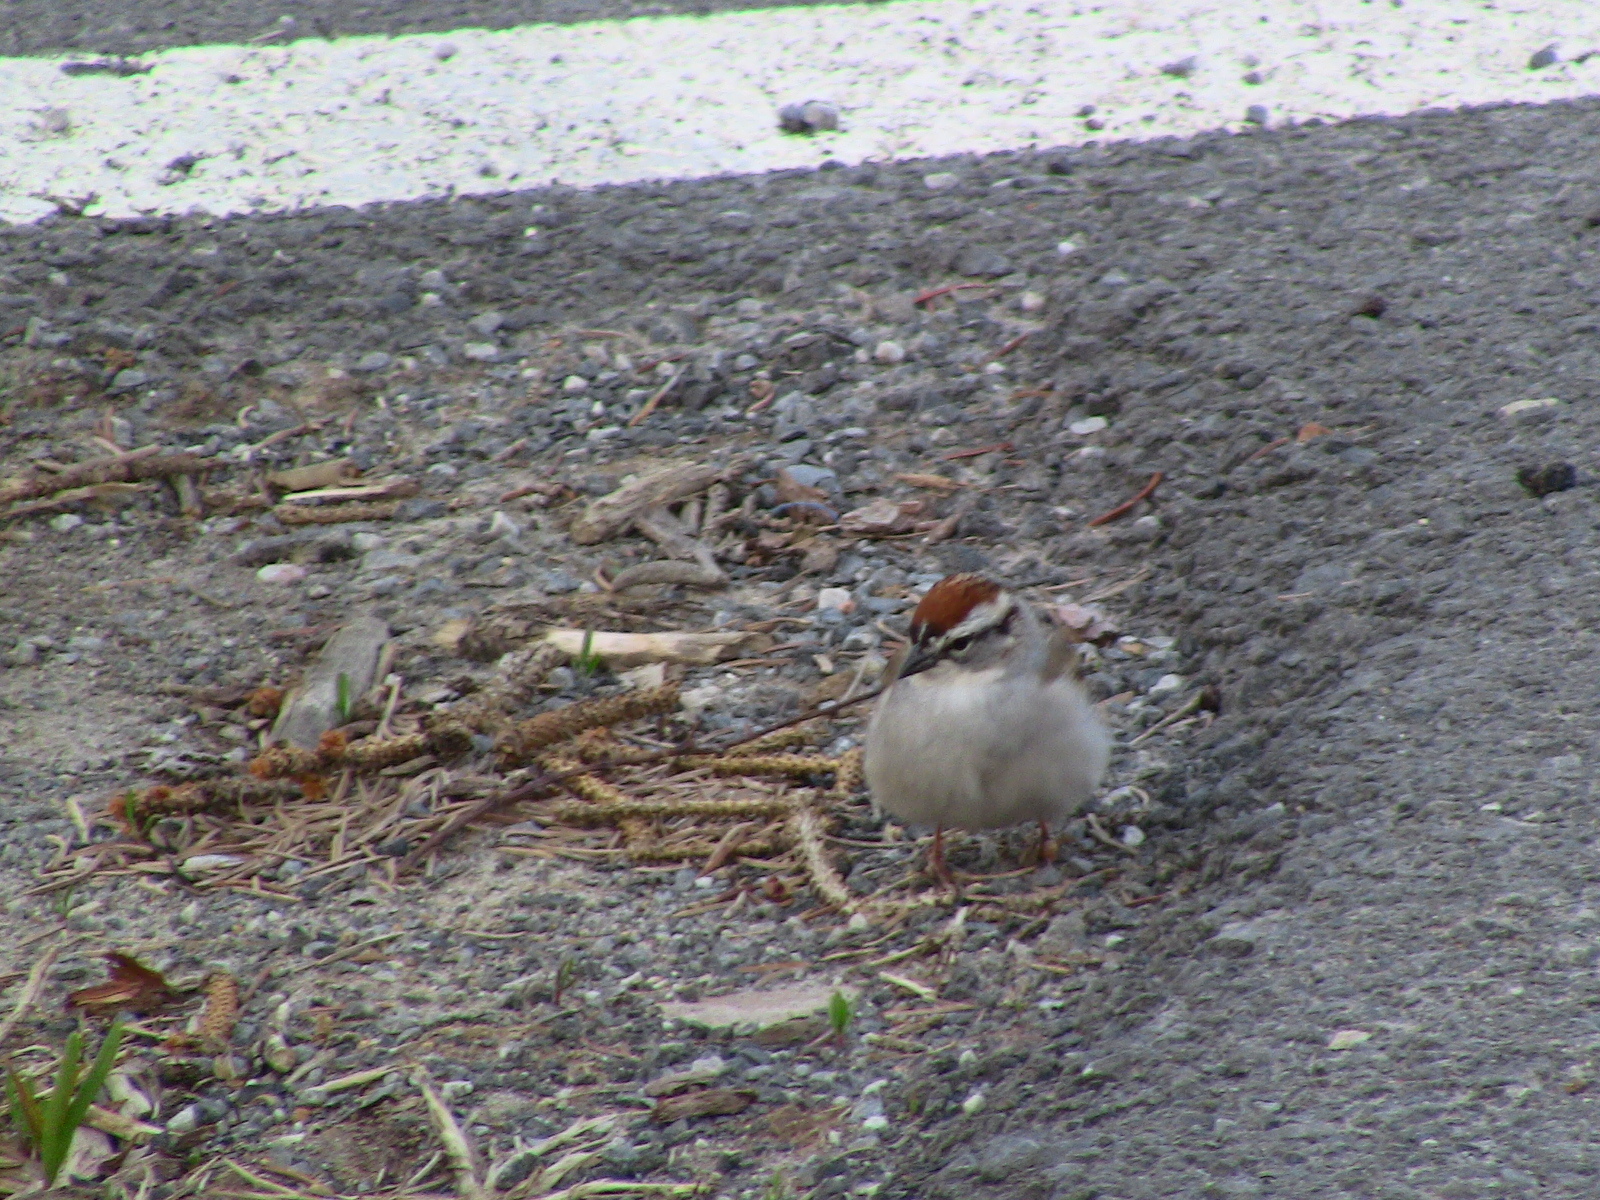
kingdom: Animalia
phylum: Chordata
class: Aves
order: Passeriformes
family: Passerellidae
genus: Spizella
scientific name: Spizella passerina
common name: Chipping sparrow
